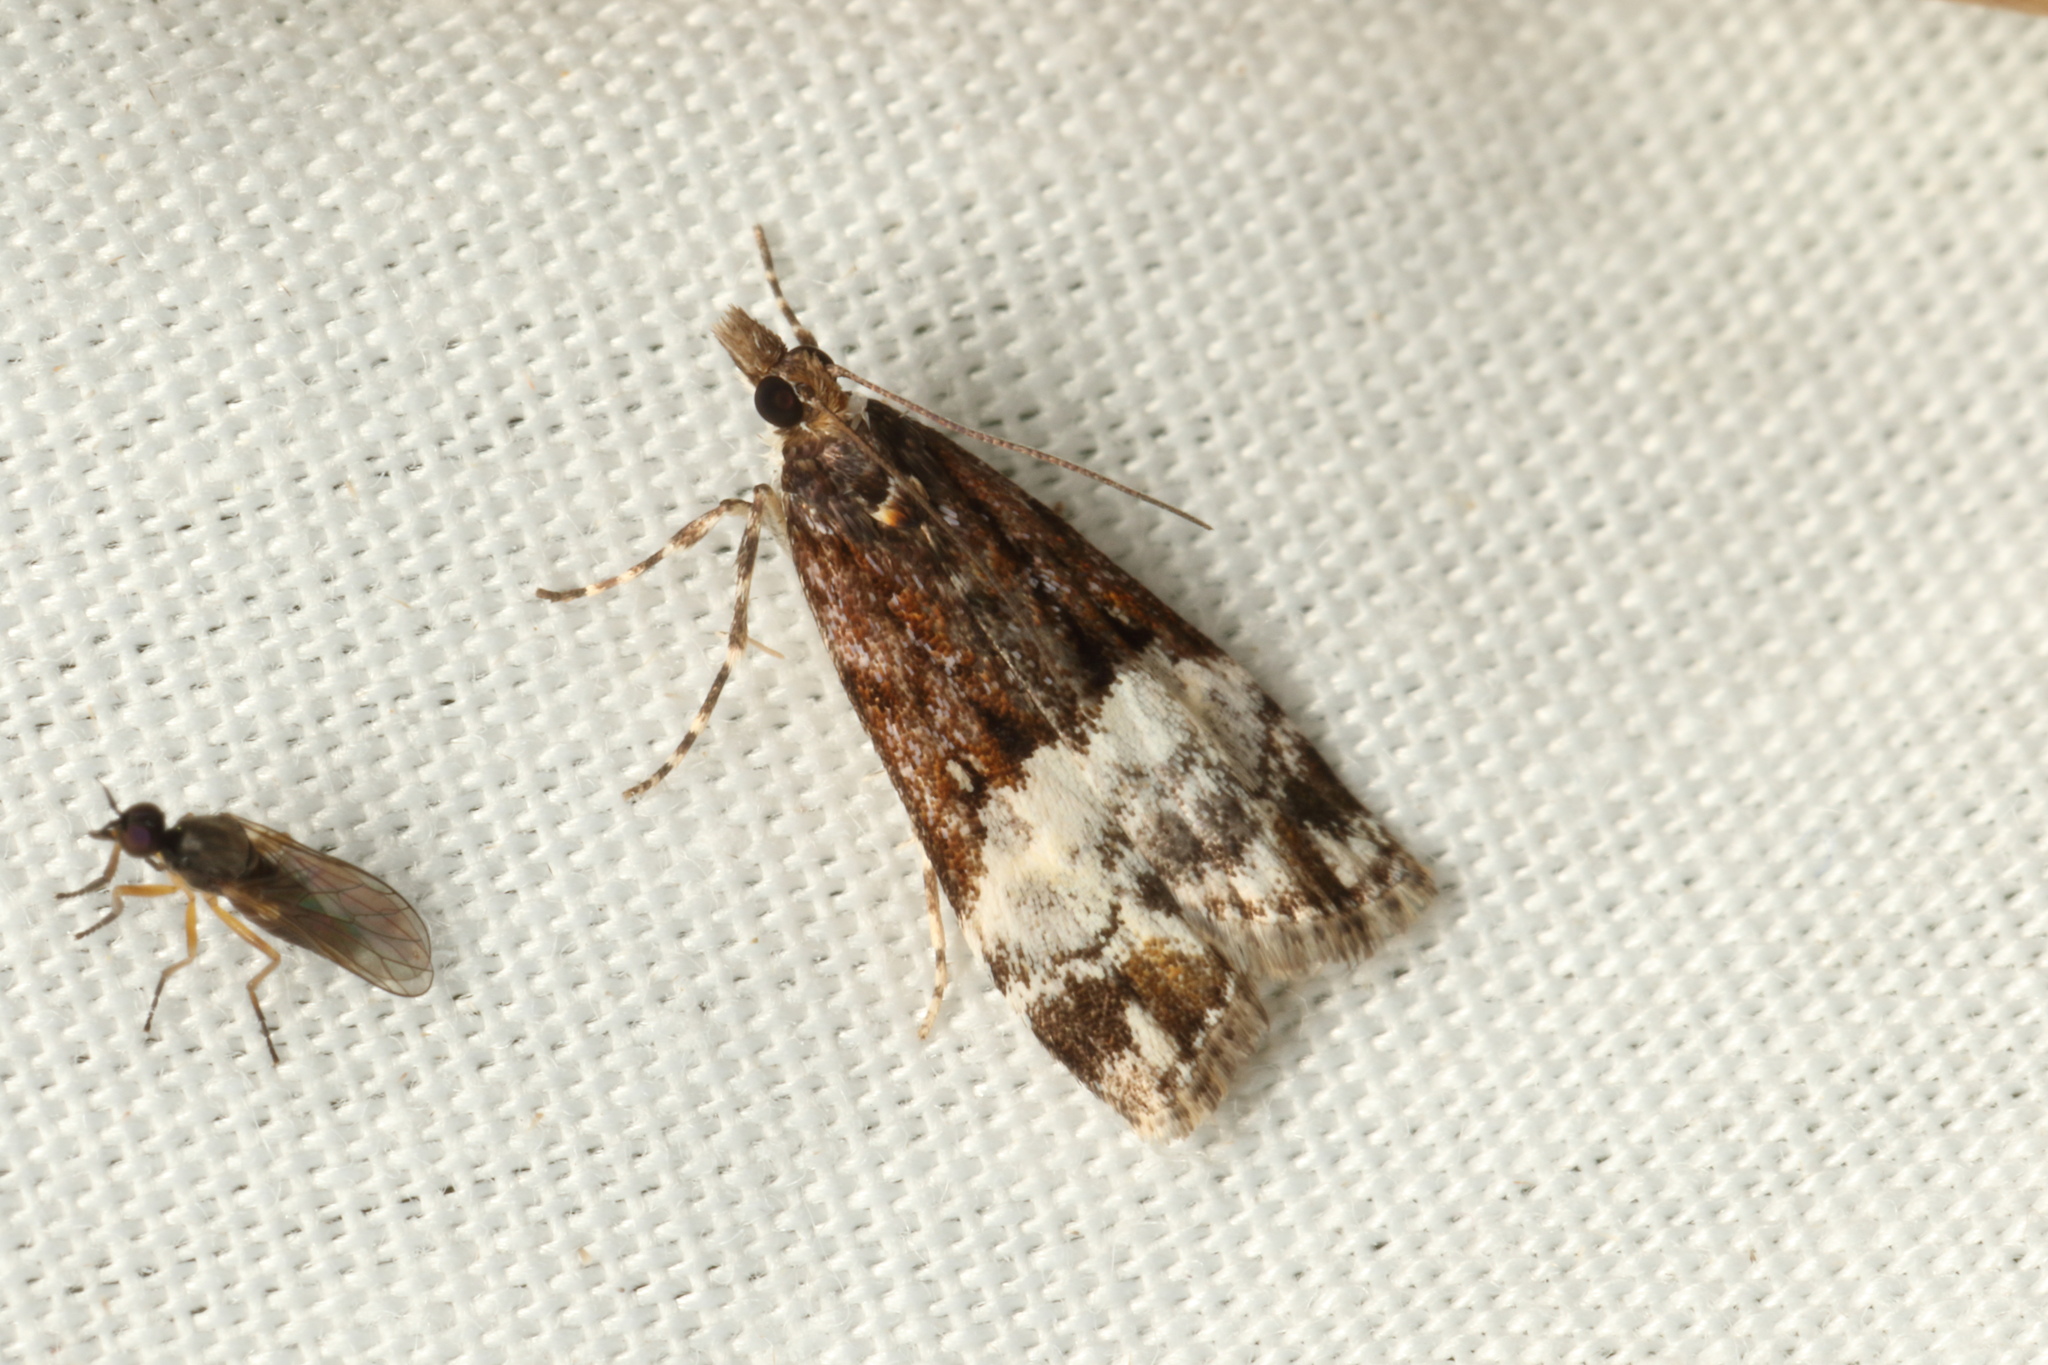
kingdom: Animalia
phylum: Arthropoda
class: Insecta
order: Lepidoptera
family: Crambidae
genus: Scoparia
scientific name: Scoparia minusculalis
